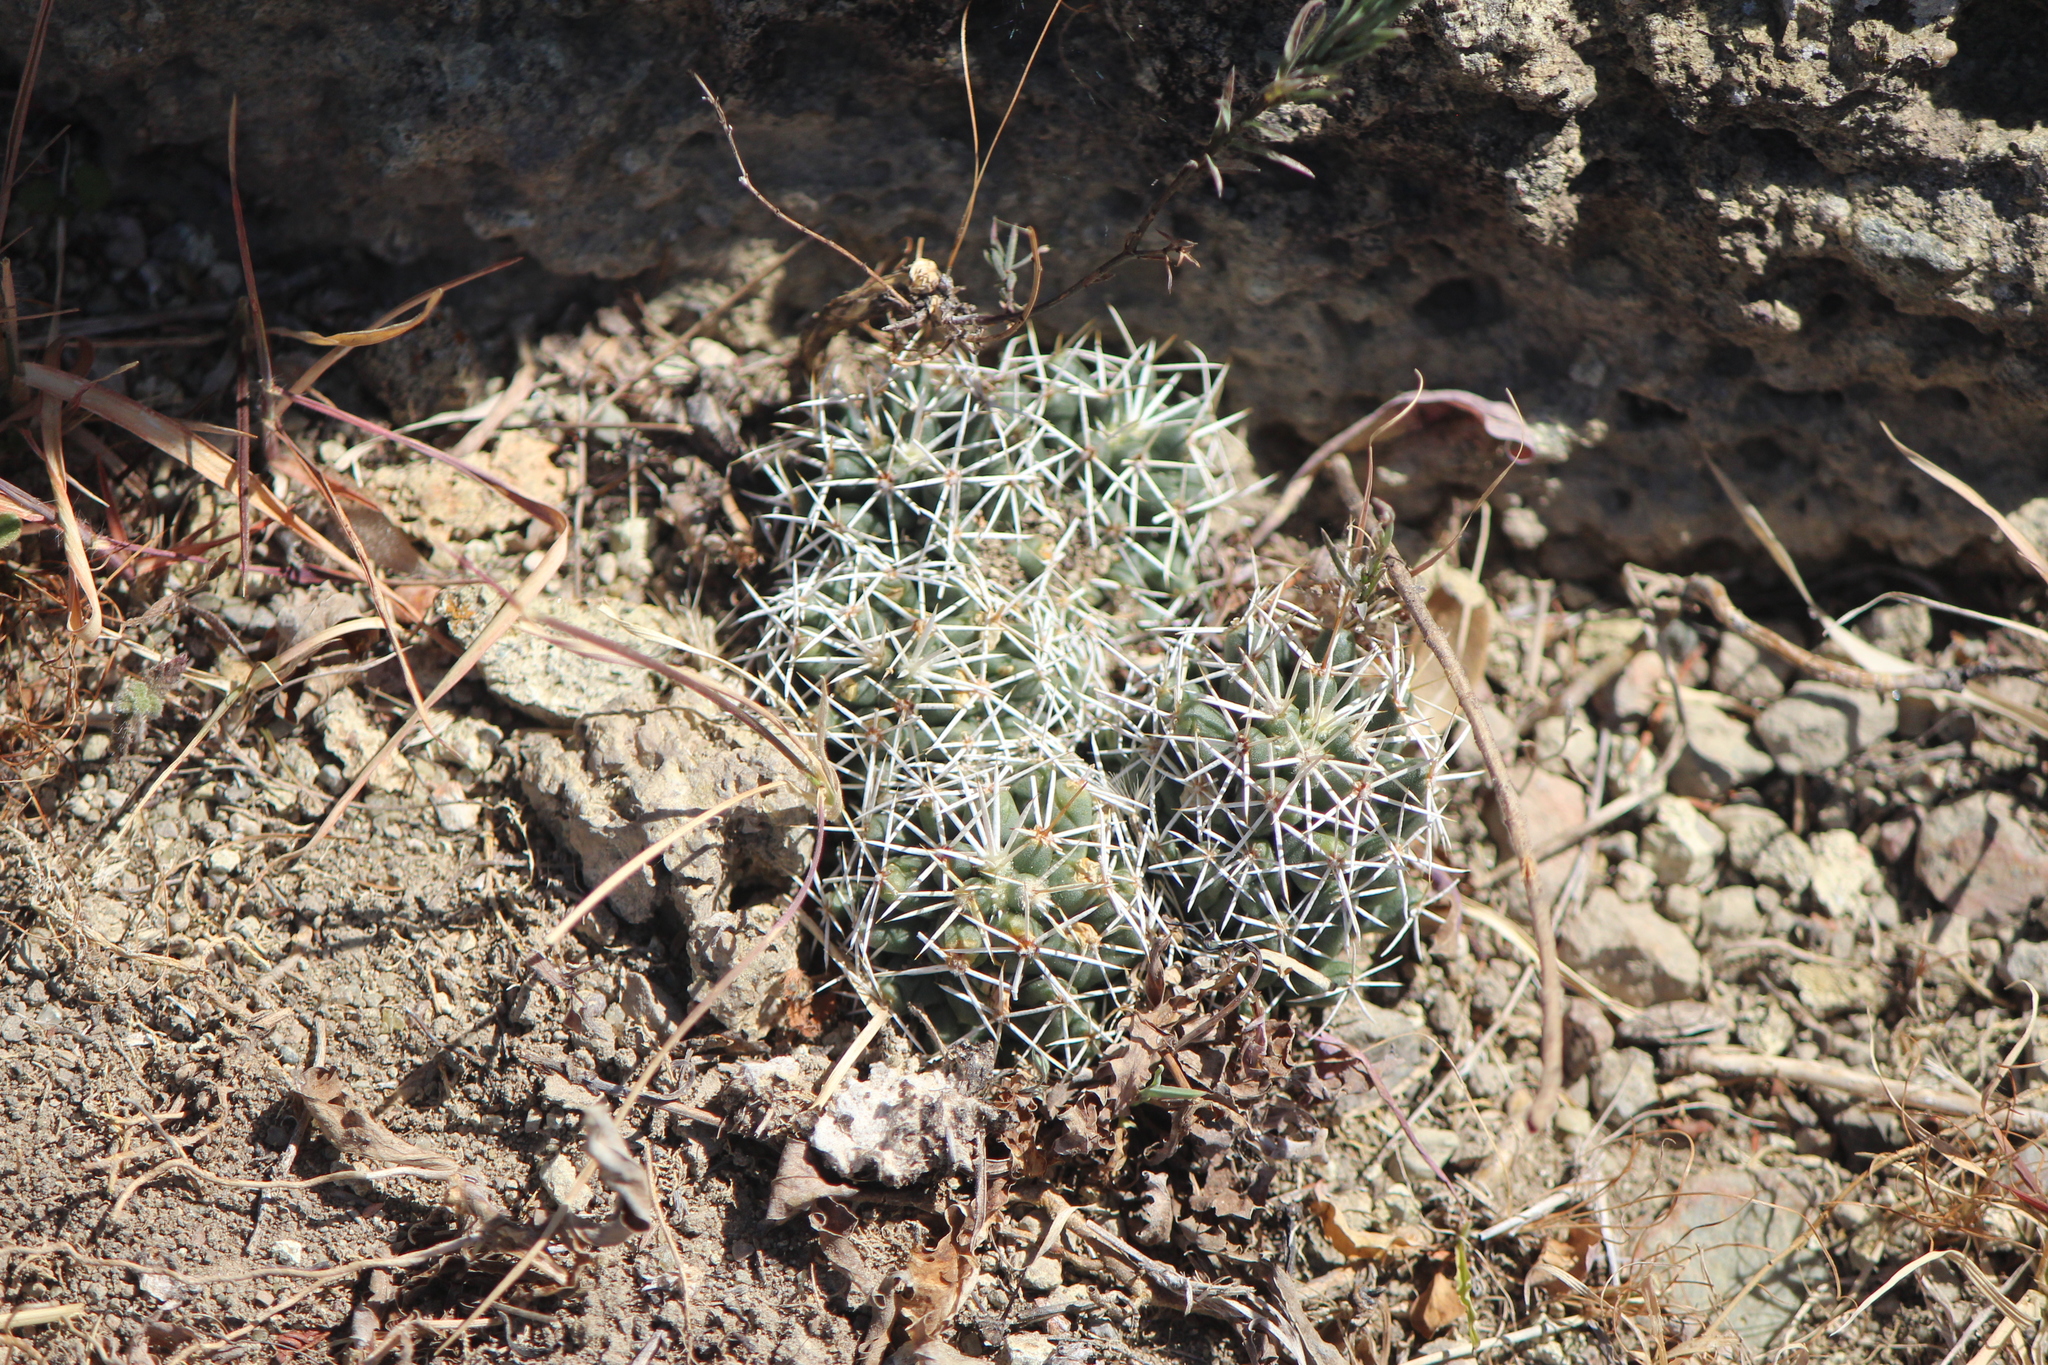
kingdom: Plantae
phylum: Tracheophyta
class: Magnoliopsida
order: Caryophyllales
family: Cactaceae
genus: Coryphantha
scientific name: Coryphantha octacantha
